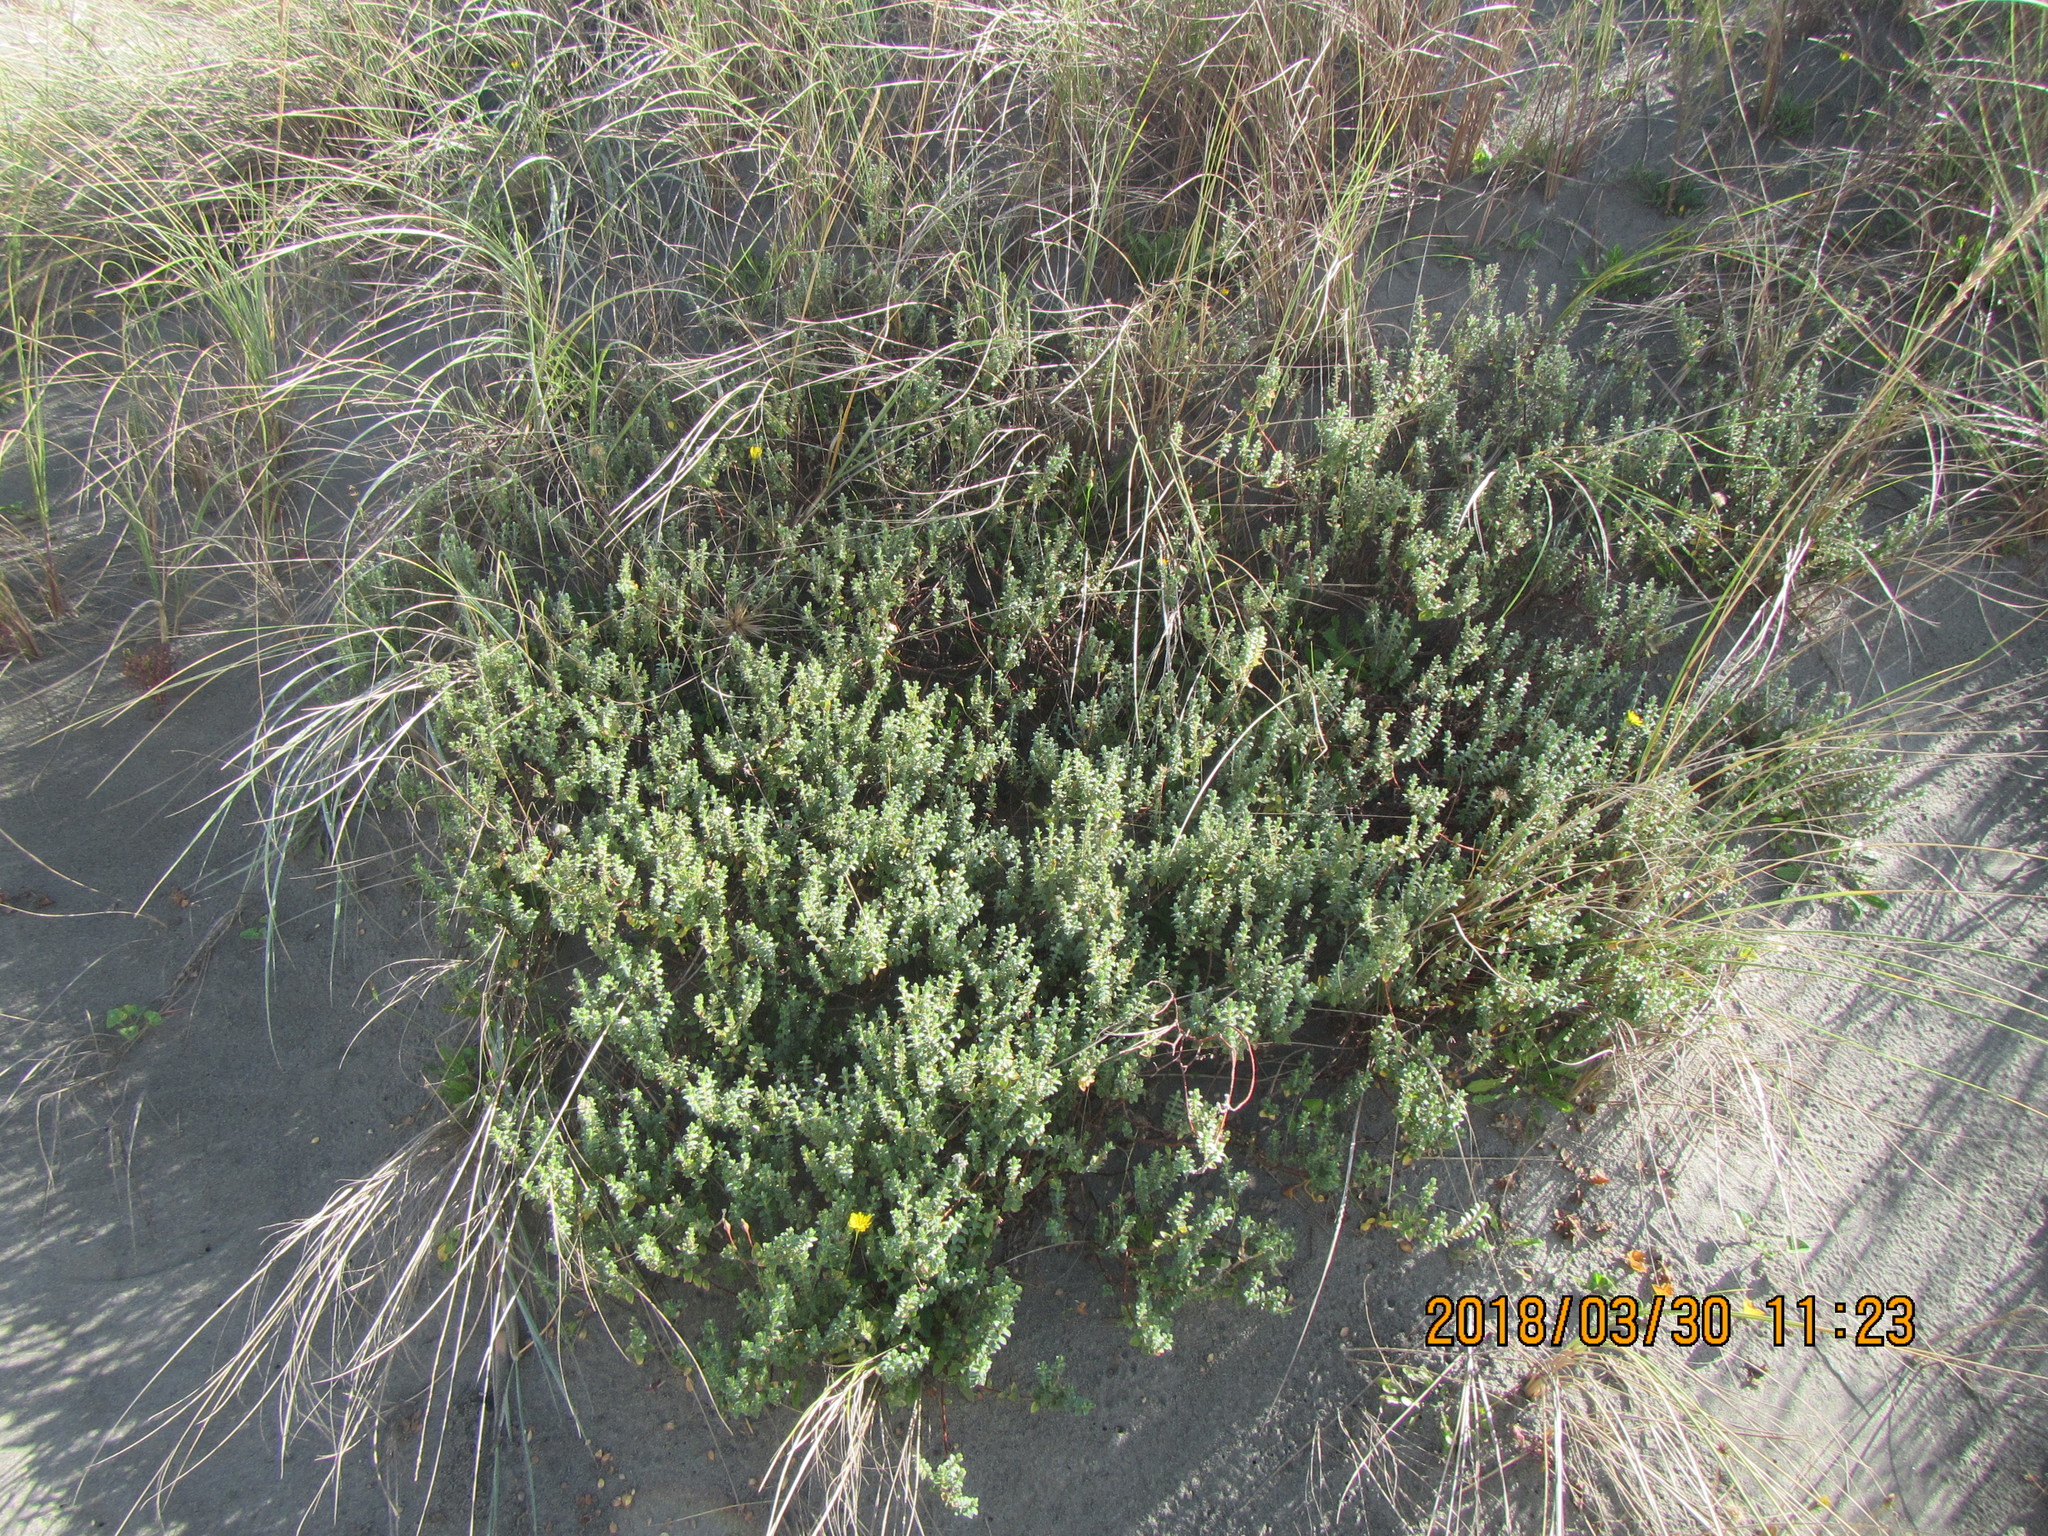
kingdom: Plantae
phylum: Tracheophyta
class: Magnoliopsida
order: Malvales
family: Thymelaeaceae
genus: Pimelea
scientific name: Pimelea villosa
